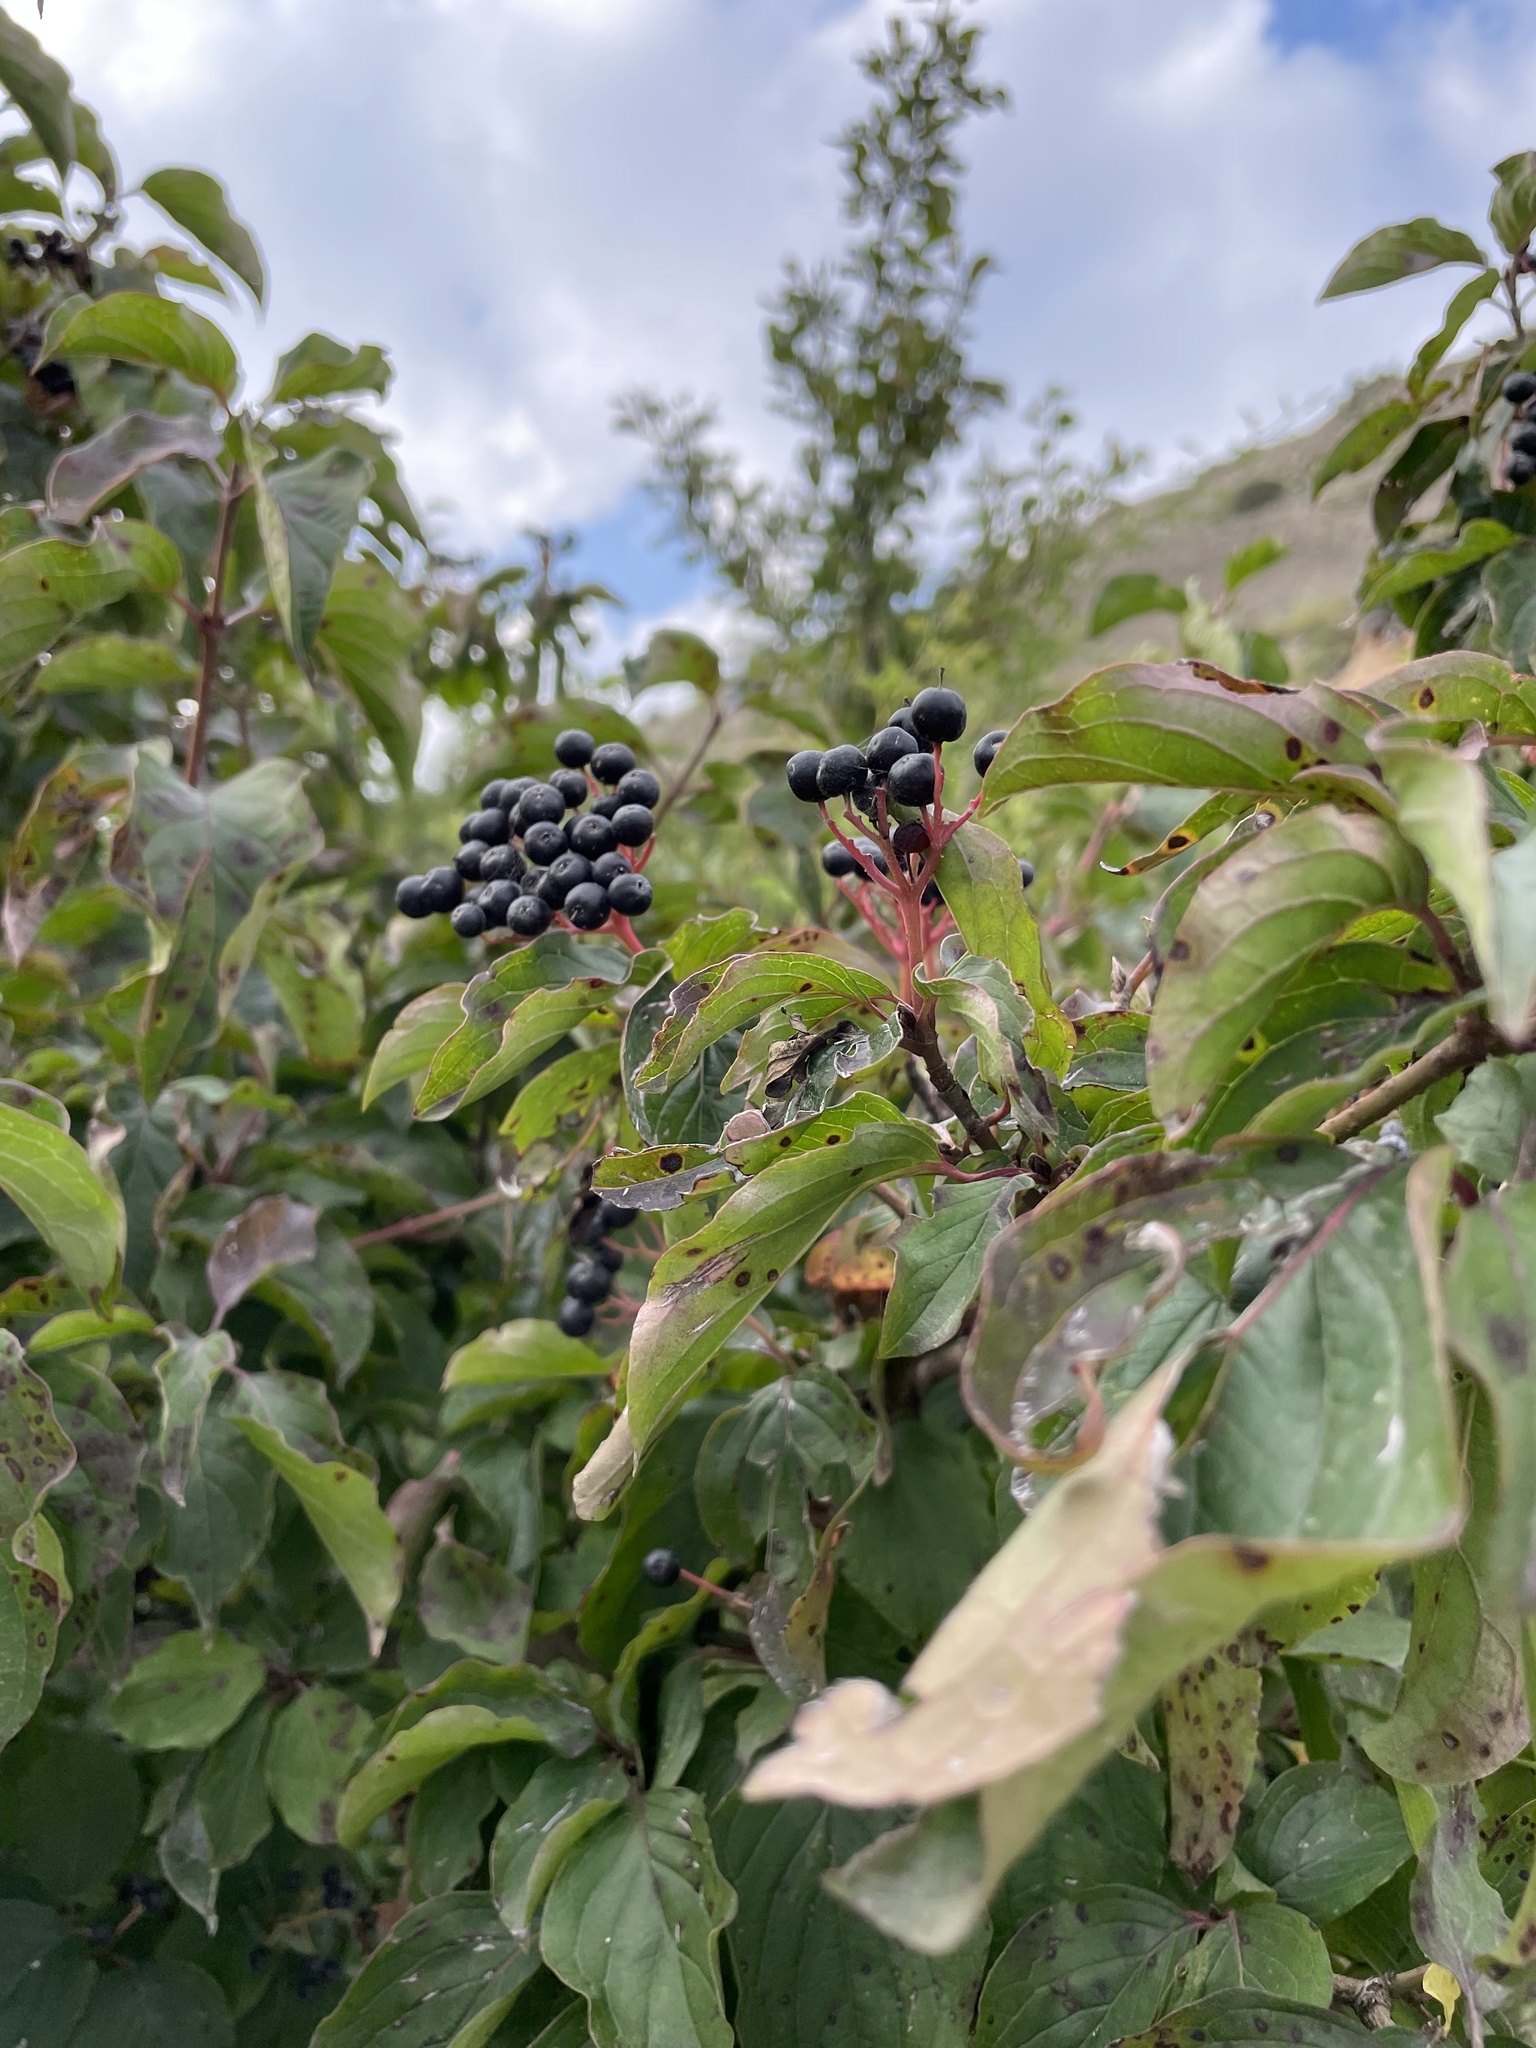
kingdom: Plantae
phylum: Tracheophyta
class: Magnoliopsida
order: Cornales
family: Cornaceae
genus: Cornus
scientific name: Cornus sanguinea
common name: Dogwood
